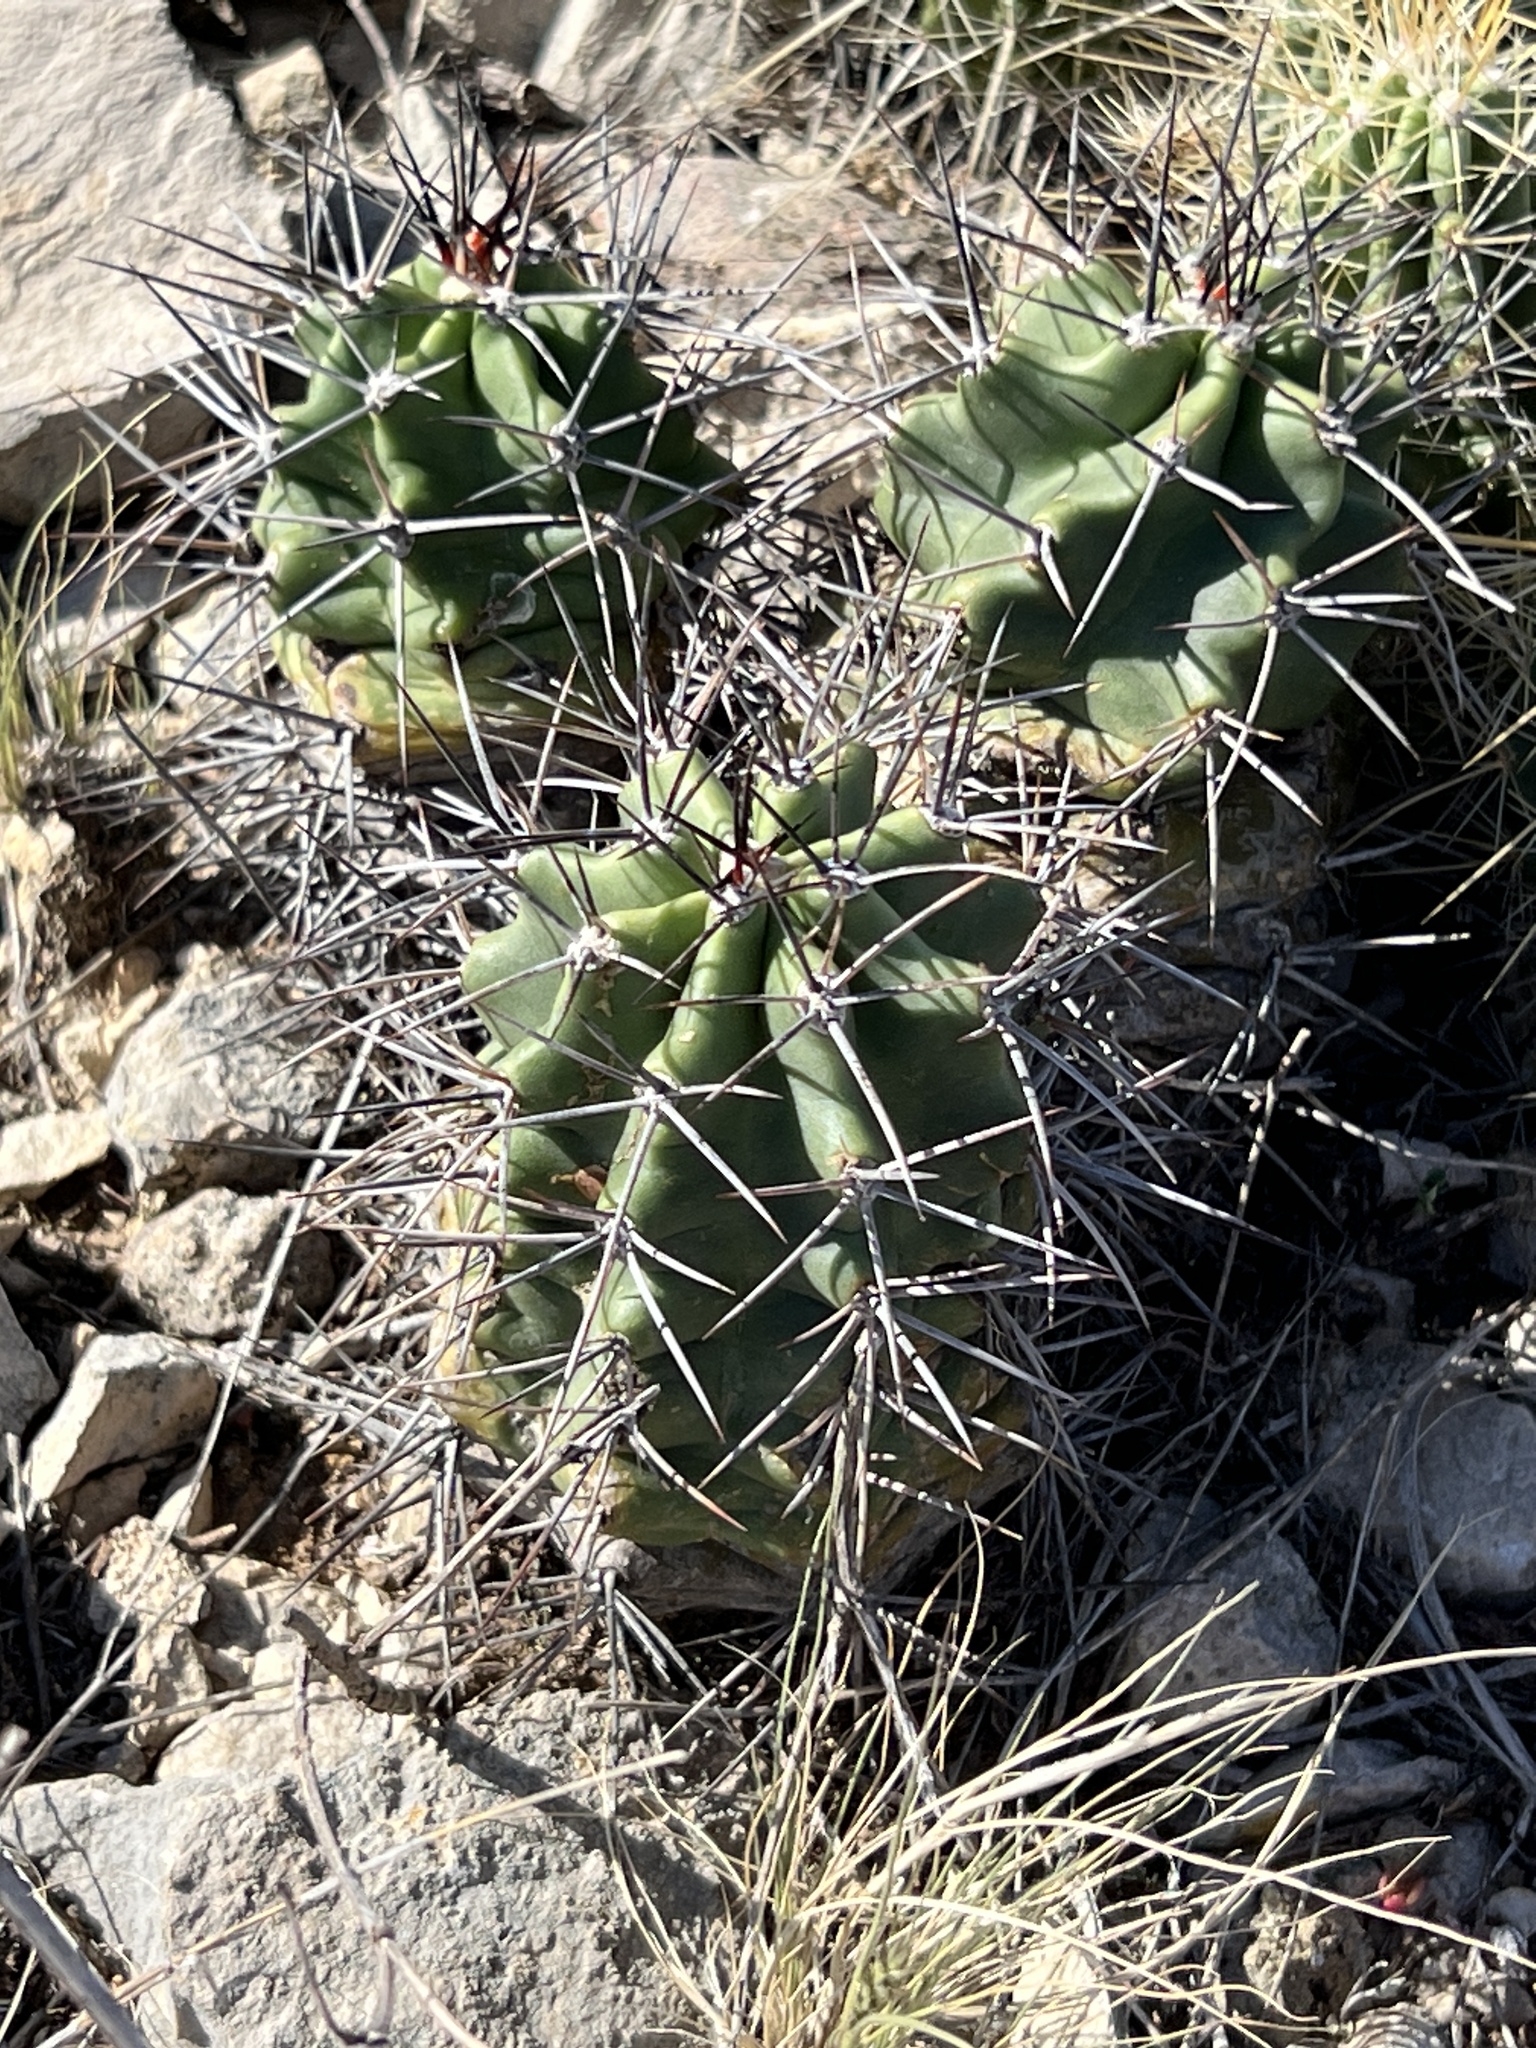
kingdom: Plantae
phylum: Tracheophyta
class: Magnoliopsida
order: Caryophyllales
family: Cactaceae
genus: Echinocereus
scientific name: Echinocereus coccineus
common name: Scarlet hedgehog cactus
